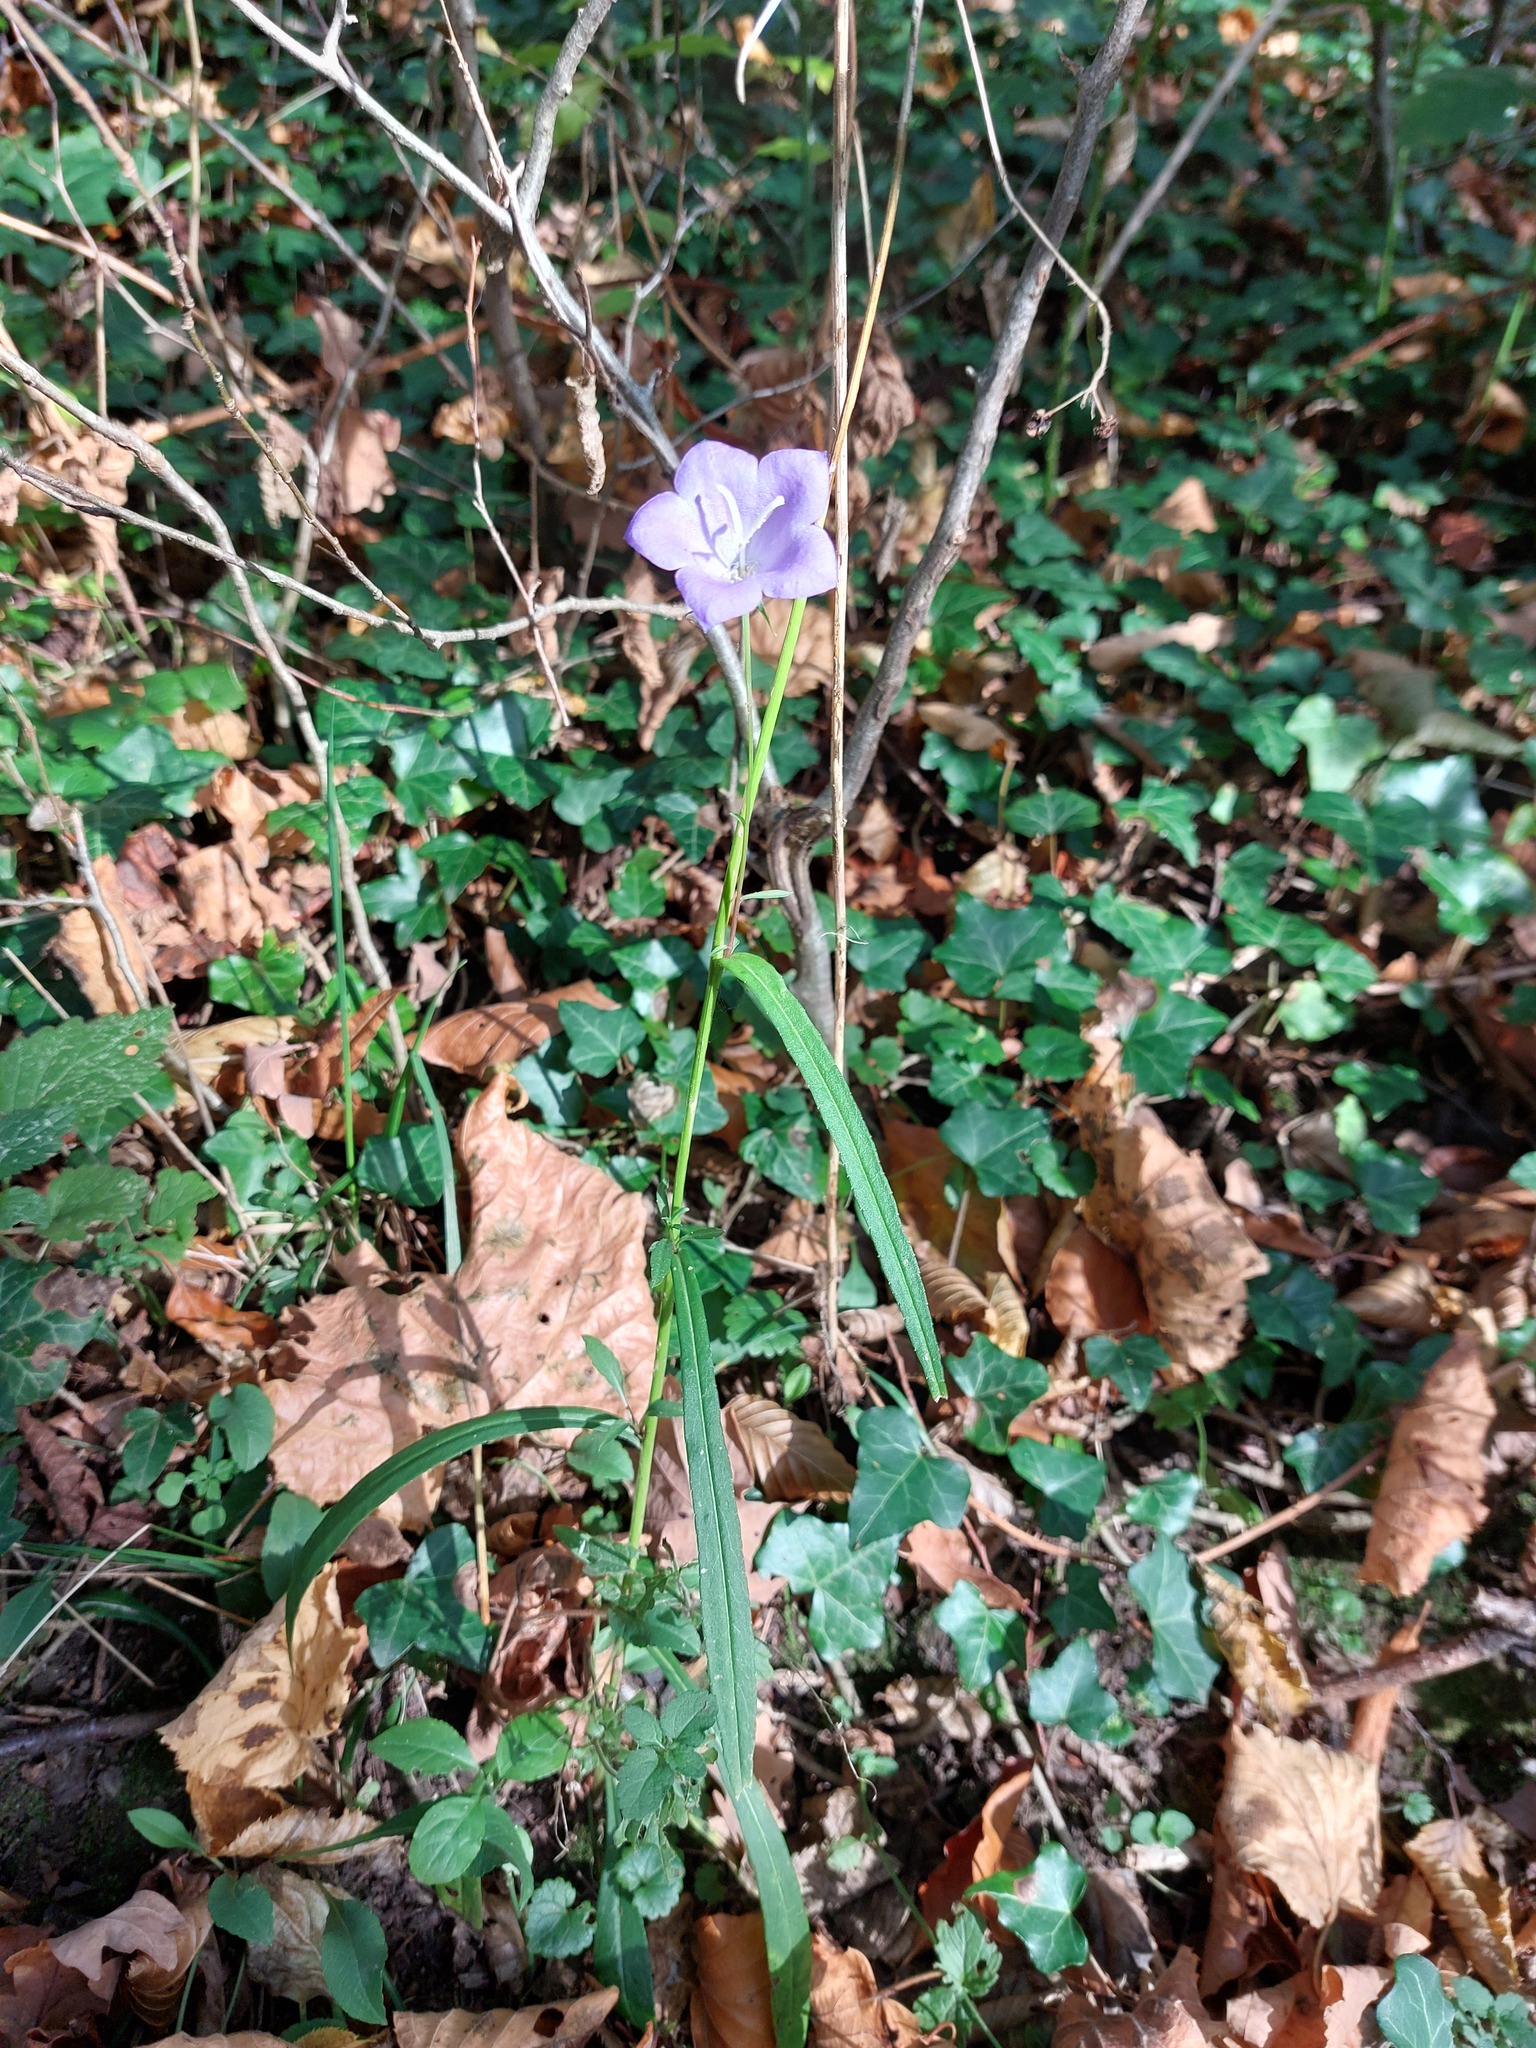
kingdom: Plantae
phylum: Tracheophyta
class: Magnoliopsida
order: Asterales
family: Campanulaceae
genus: Campanula
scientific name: Campanula persicifolia
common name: Peach-leaved bellflower
